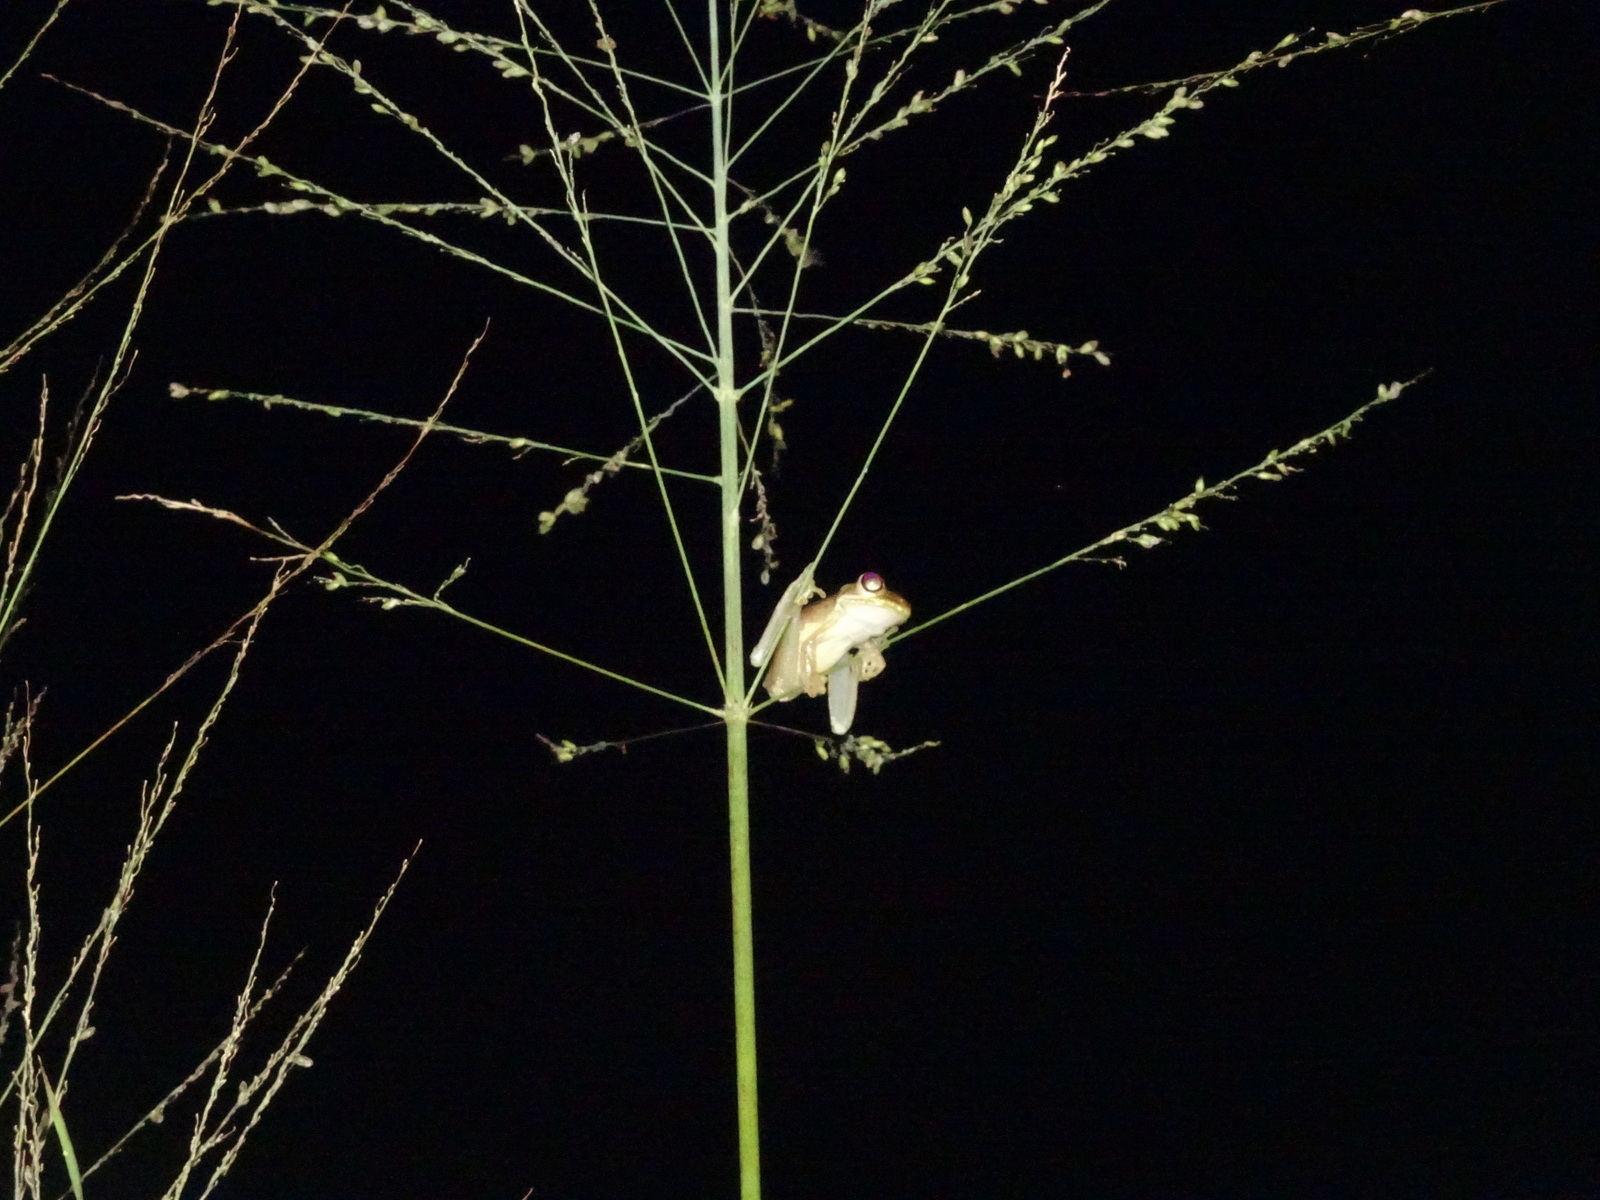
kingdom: Animalia
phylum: Chordata
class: Amphibia
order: Anura
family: Hylidae
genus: Osteopilus
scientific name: Osteopilus septentrionalis
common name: Cuban treefrog
